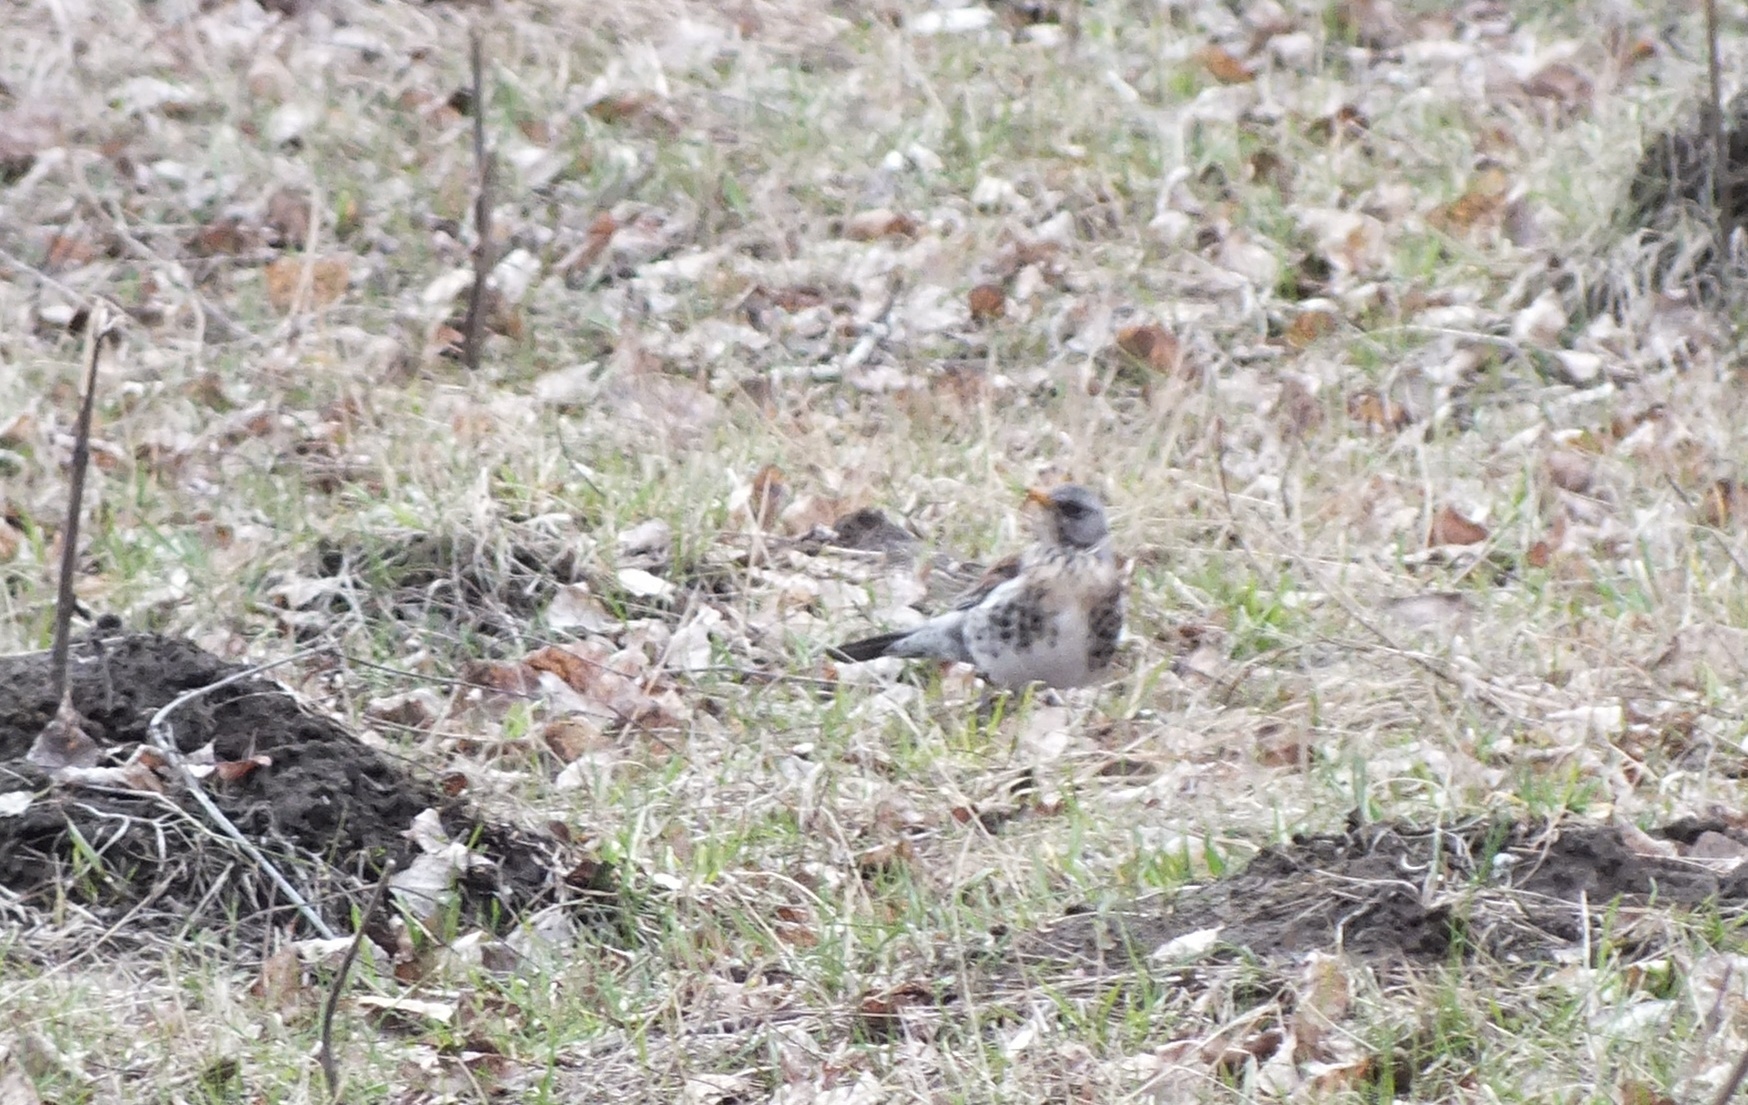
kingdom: Animalia
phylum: Chordata
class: Aves
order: Passeriformes
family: Turdidae
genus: Turdus
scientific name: Turdus pilaris
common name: Fieldfare
